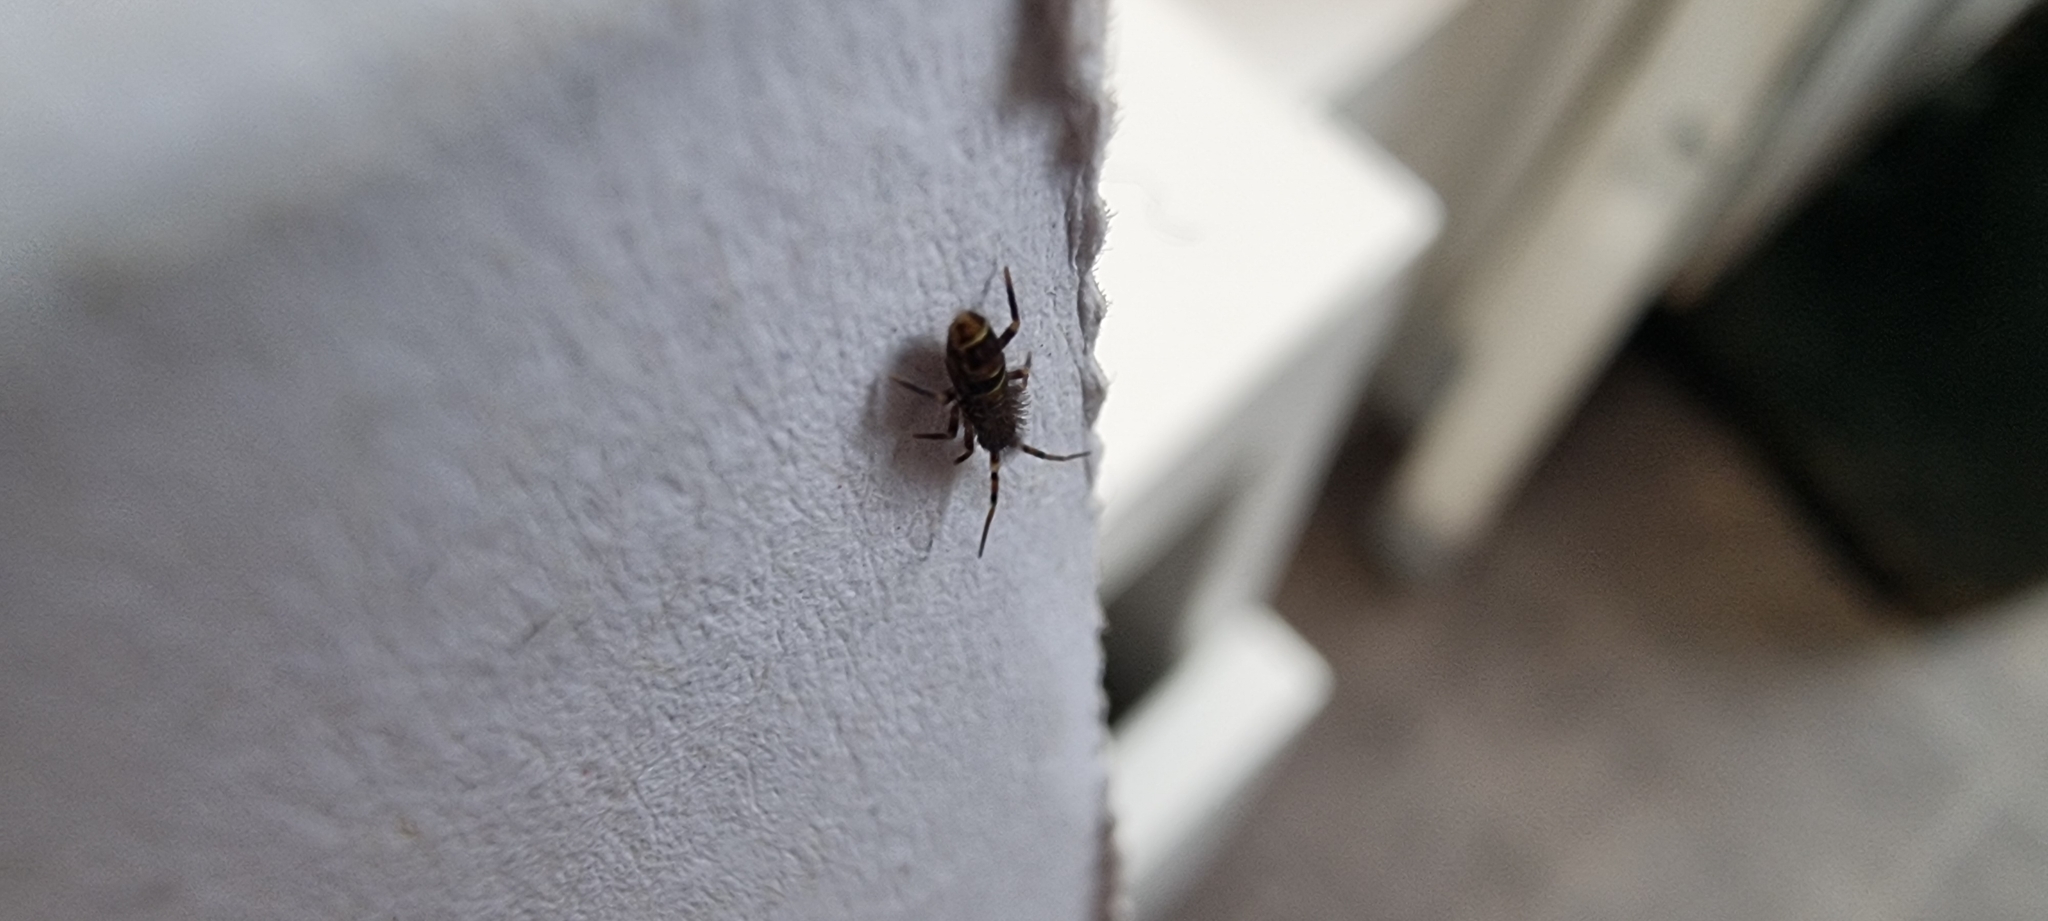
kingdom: Animalia
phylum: Arthropoda
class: Collembola
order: Entomobryomorpha
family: Orchesellidae
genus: Orchesella
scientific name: Orchesella cincta
